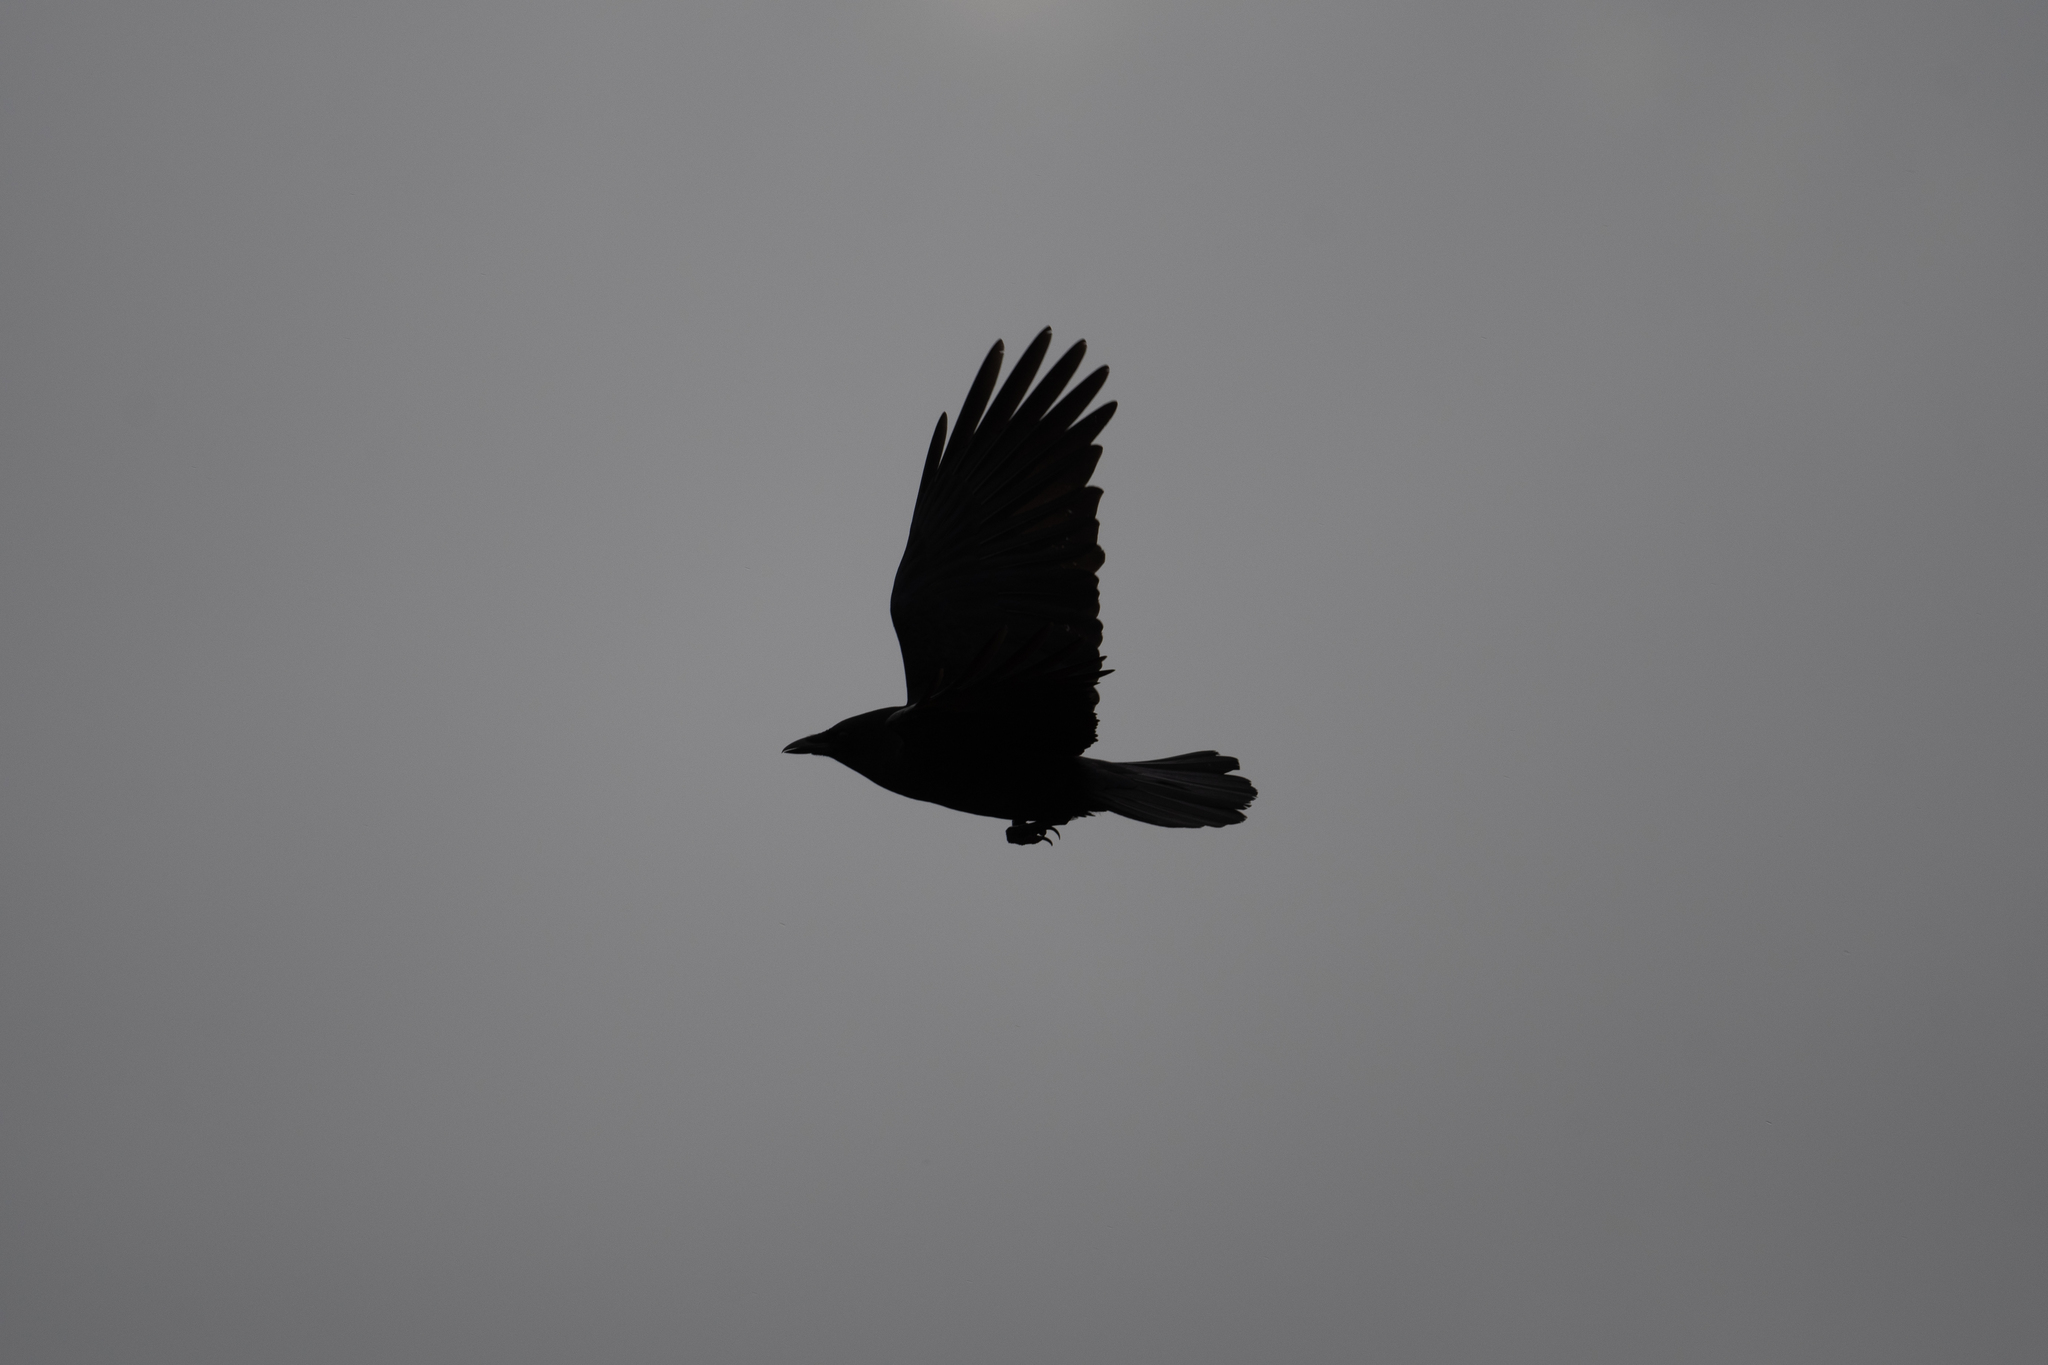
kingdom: Animalia
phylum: Chordata
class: Aves
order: Passeriformes
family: Corvidae
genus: Corvus
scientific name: Corvus brachyrhynchos
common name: American crow
